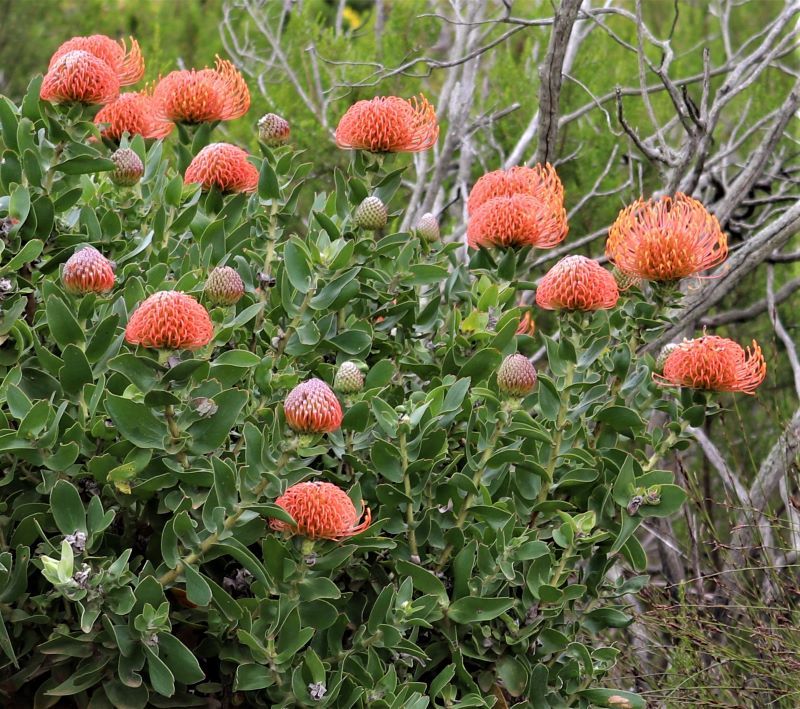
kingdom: Plantae
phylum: Tracheophyta
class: Magnoliopsida
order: Proteales
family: Proteaceae
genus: Leucospermum
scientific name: Leucospermum cordifolium
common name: Red pincushion-protea
